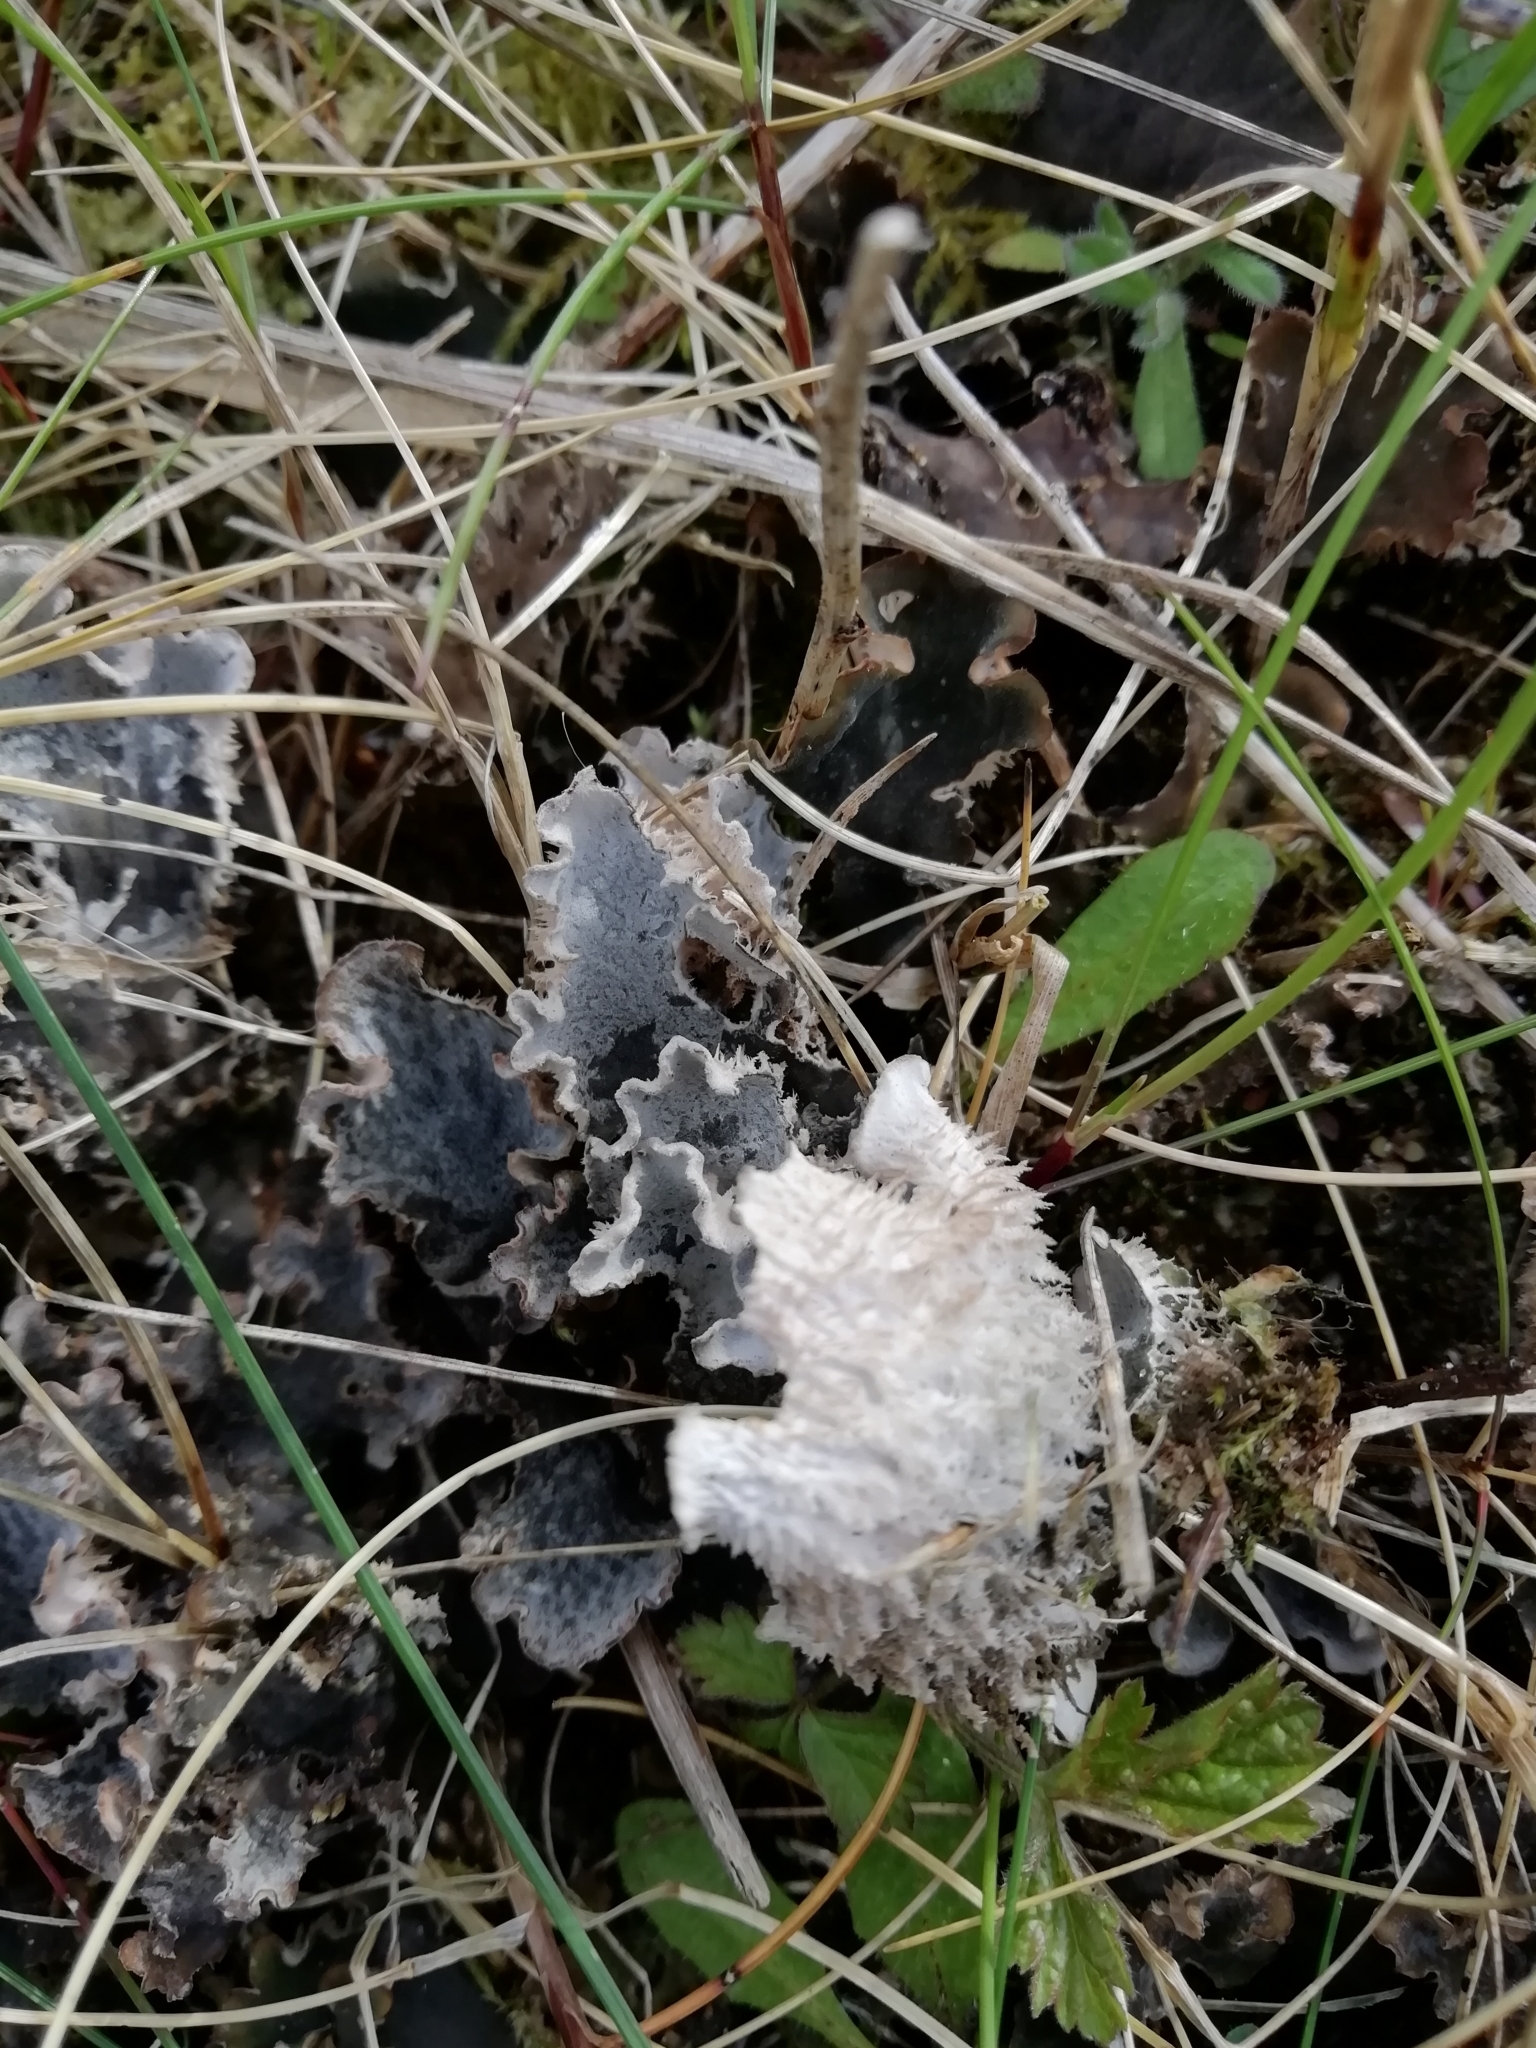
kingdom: Fungi
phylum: Ascomycota
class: Lecanoromycetes
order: Peltigerales
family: Peltigeraceae
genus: Peltigera
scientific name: Peltigera canina
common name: Dog pelt lichen
